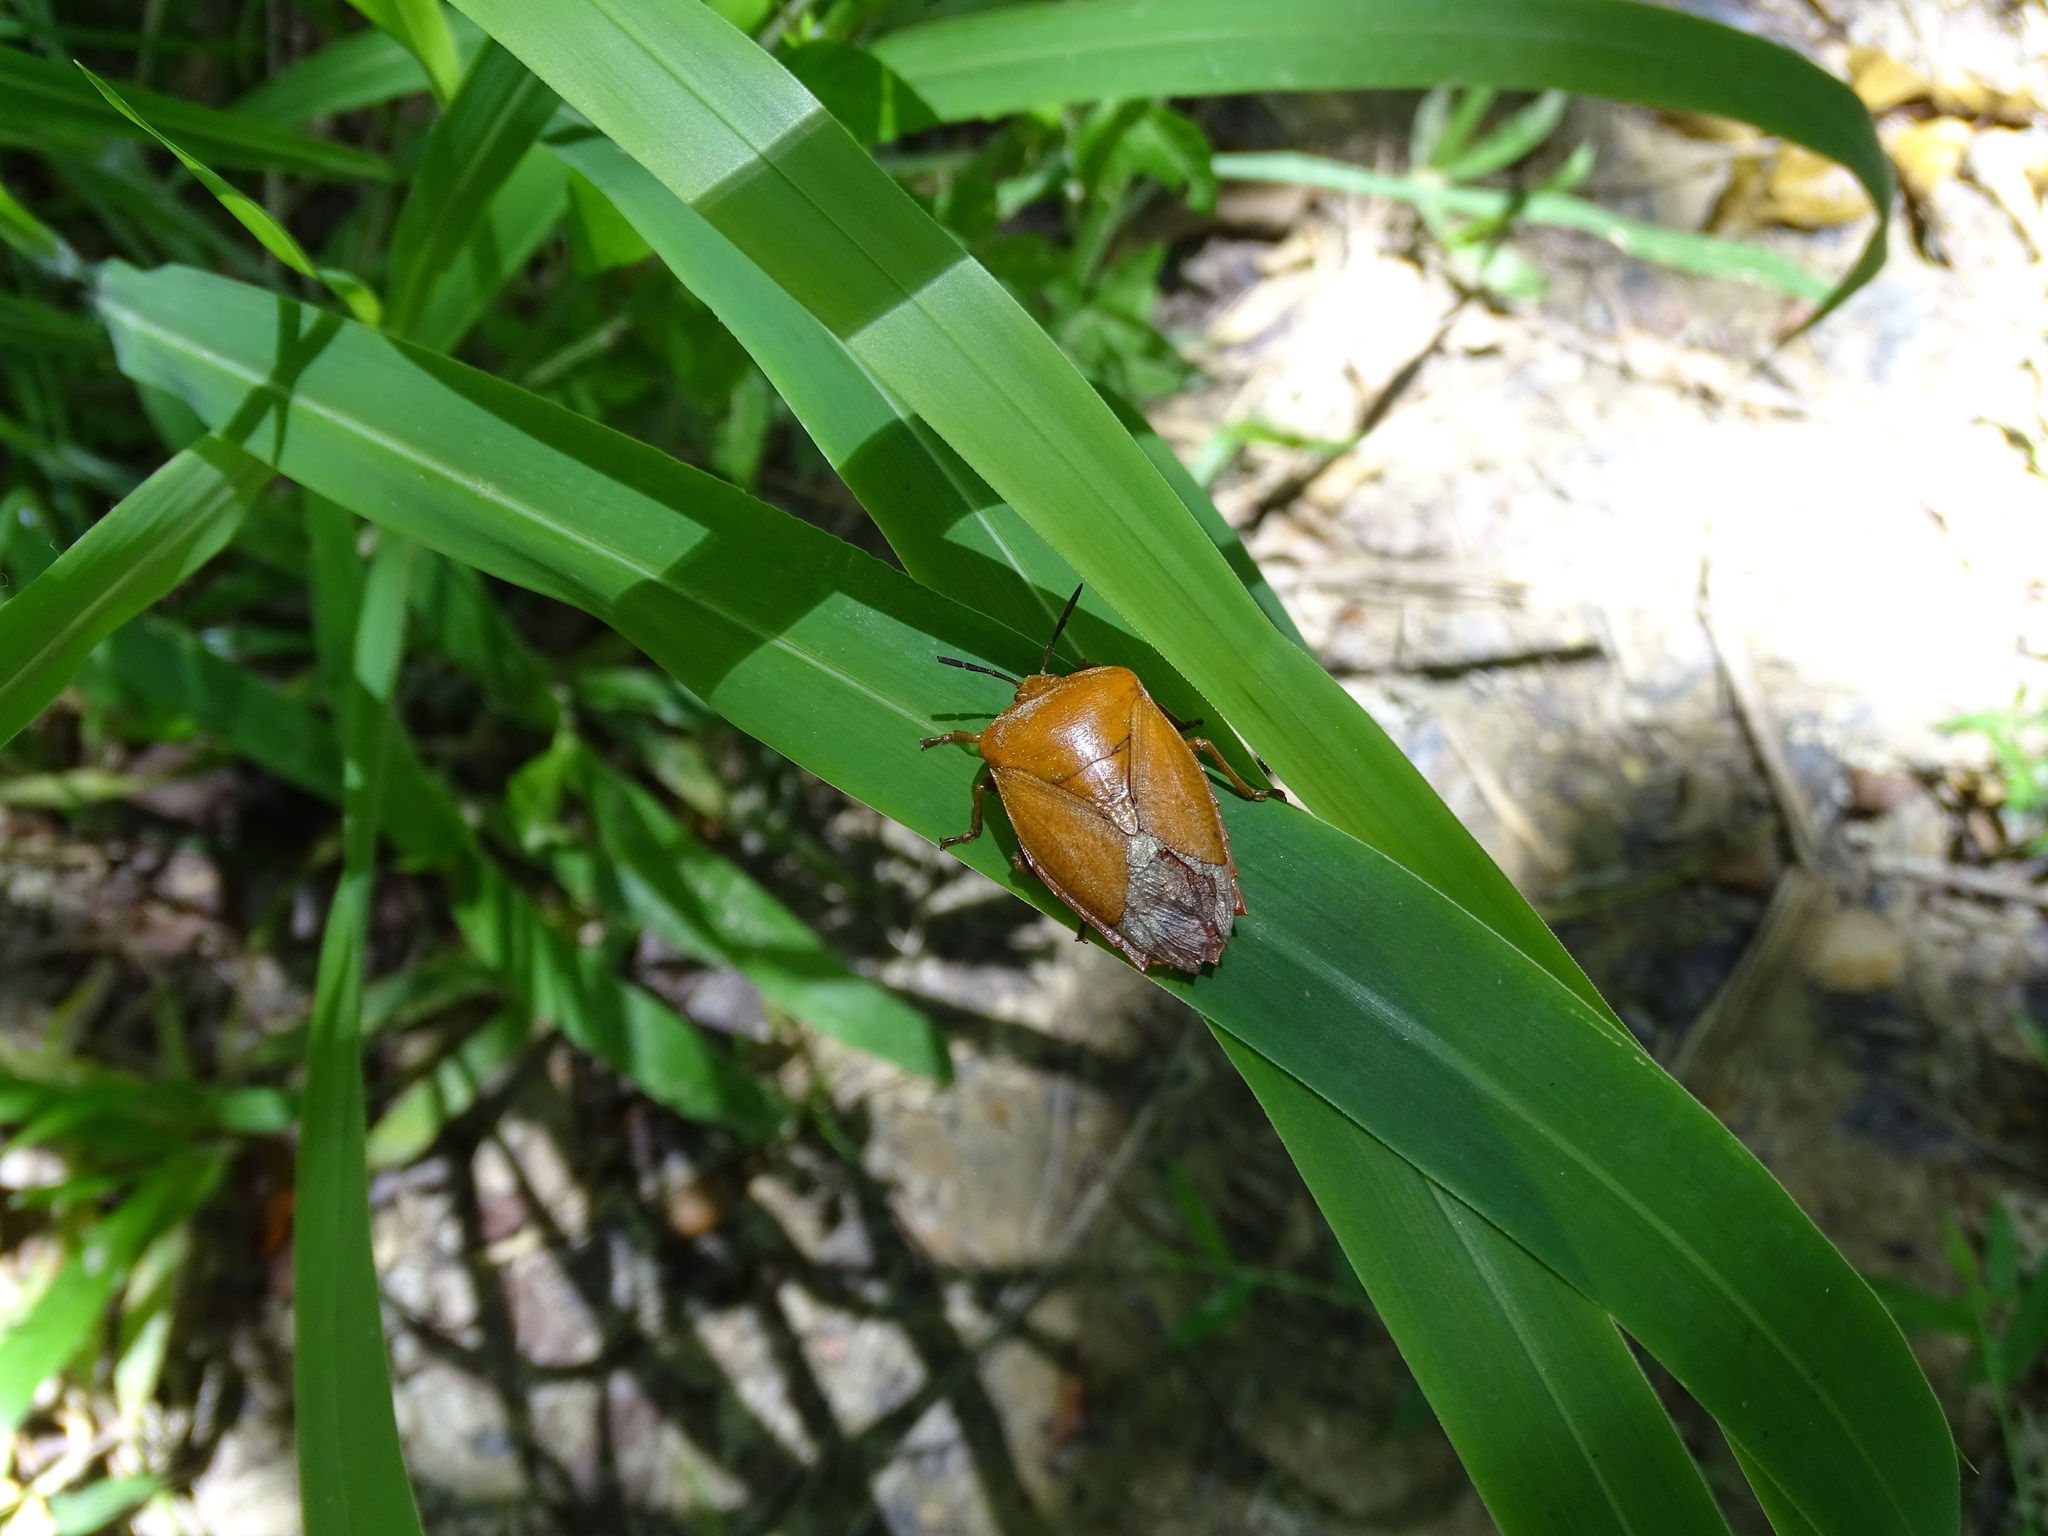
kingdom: Animalia
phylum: Arthropoda
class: Insecta
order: Hemiptera
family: Tessaratomidae
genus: Tessaratoma
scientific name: Tessaratoma papillosa
